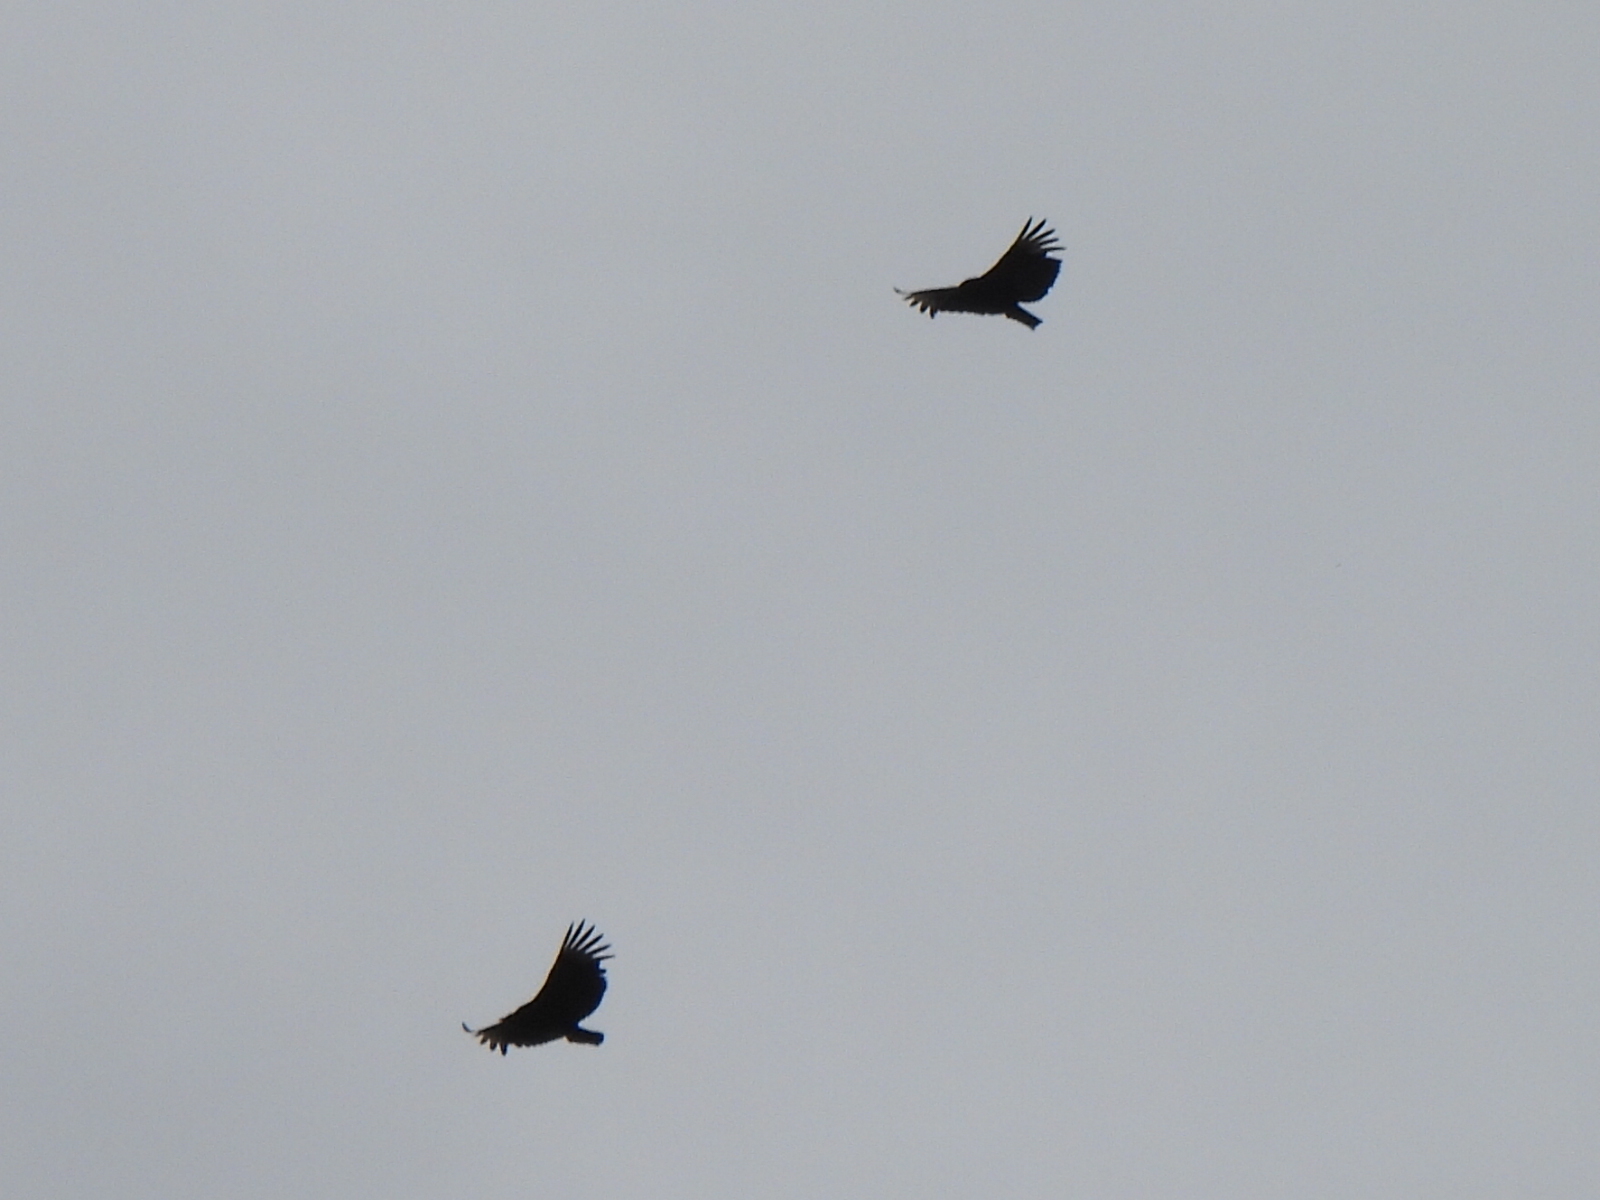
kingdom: Animalia
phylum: Chordata
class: Aves
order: Accipitriformes
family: Cathartidae
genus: Coragyps
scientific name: Coragyps atratus
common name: Black vulture
